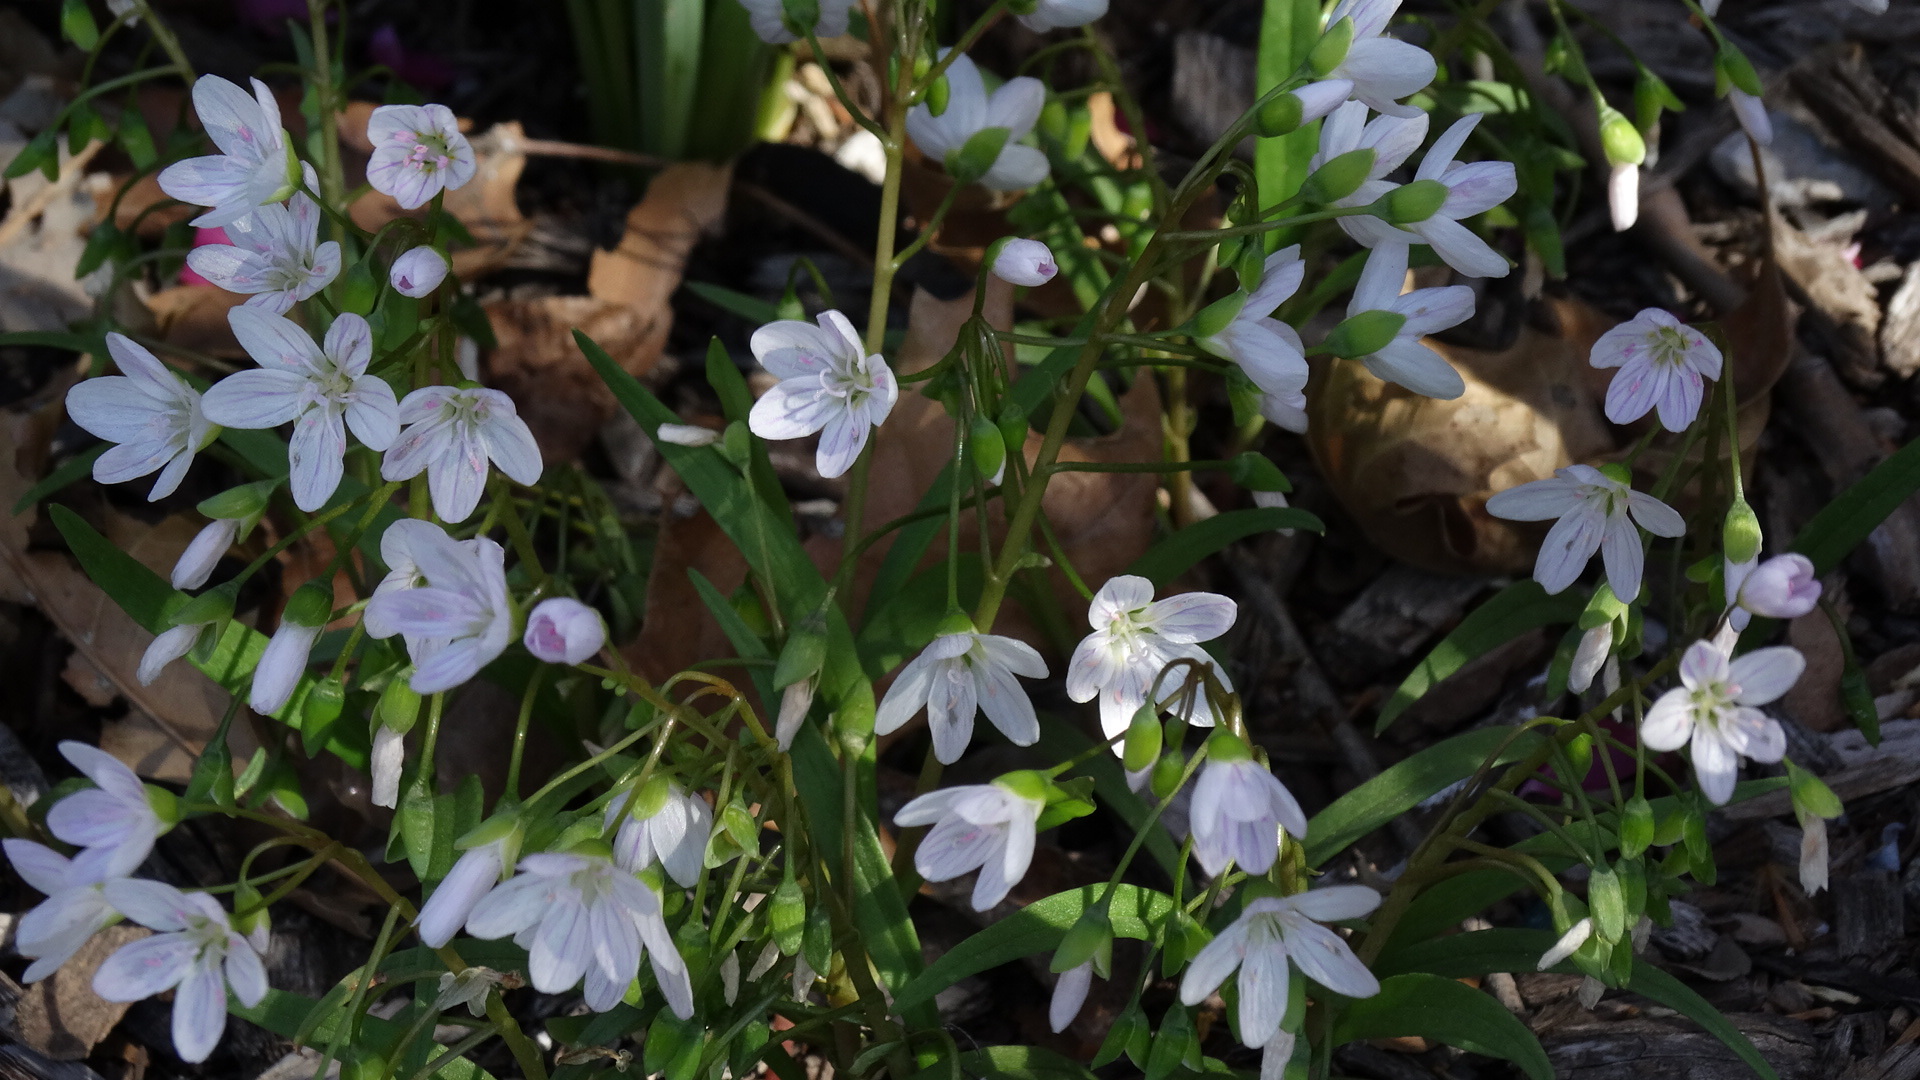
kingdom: Plantae
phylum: Tracheophyta
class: Magnoliopsida
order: Caryophyllales
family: Montiaceae
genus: Claytonia
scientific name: Claytonia virginica
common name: Virginia springbeauty
